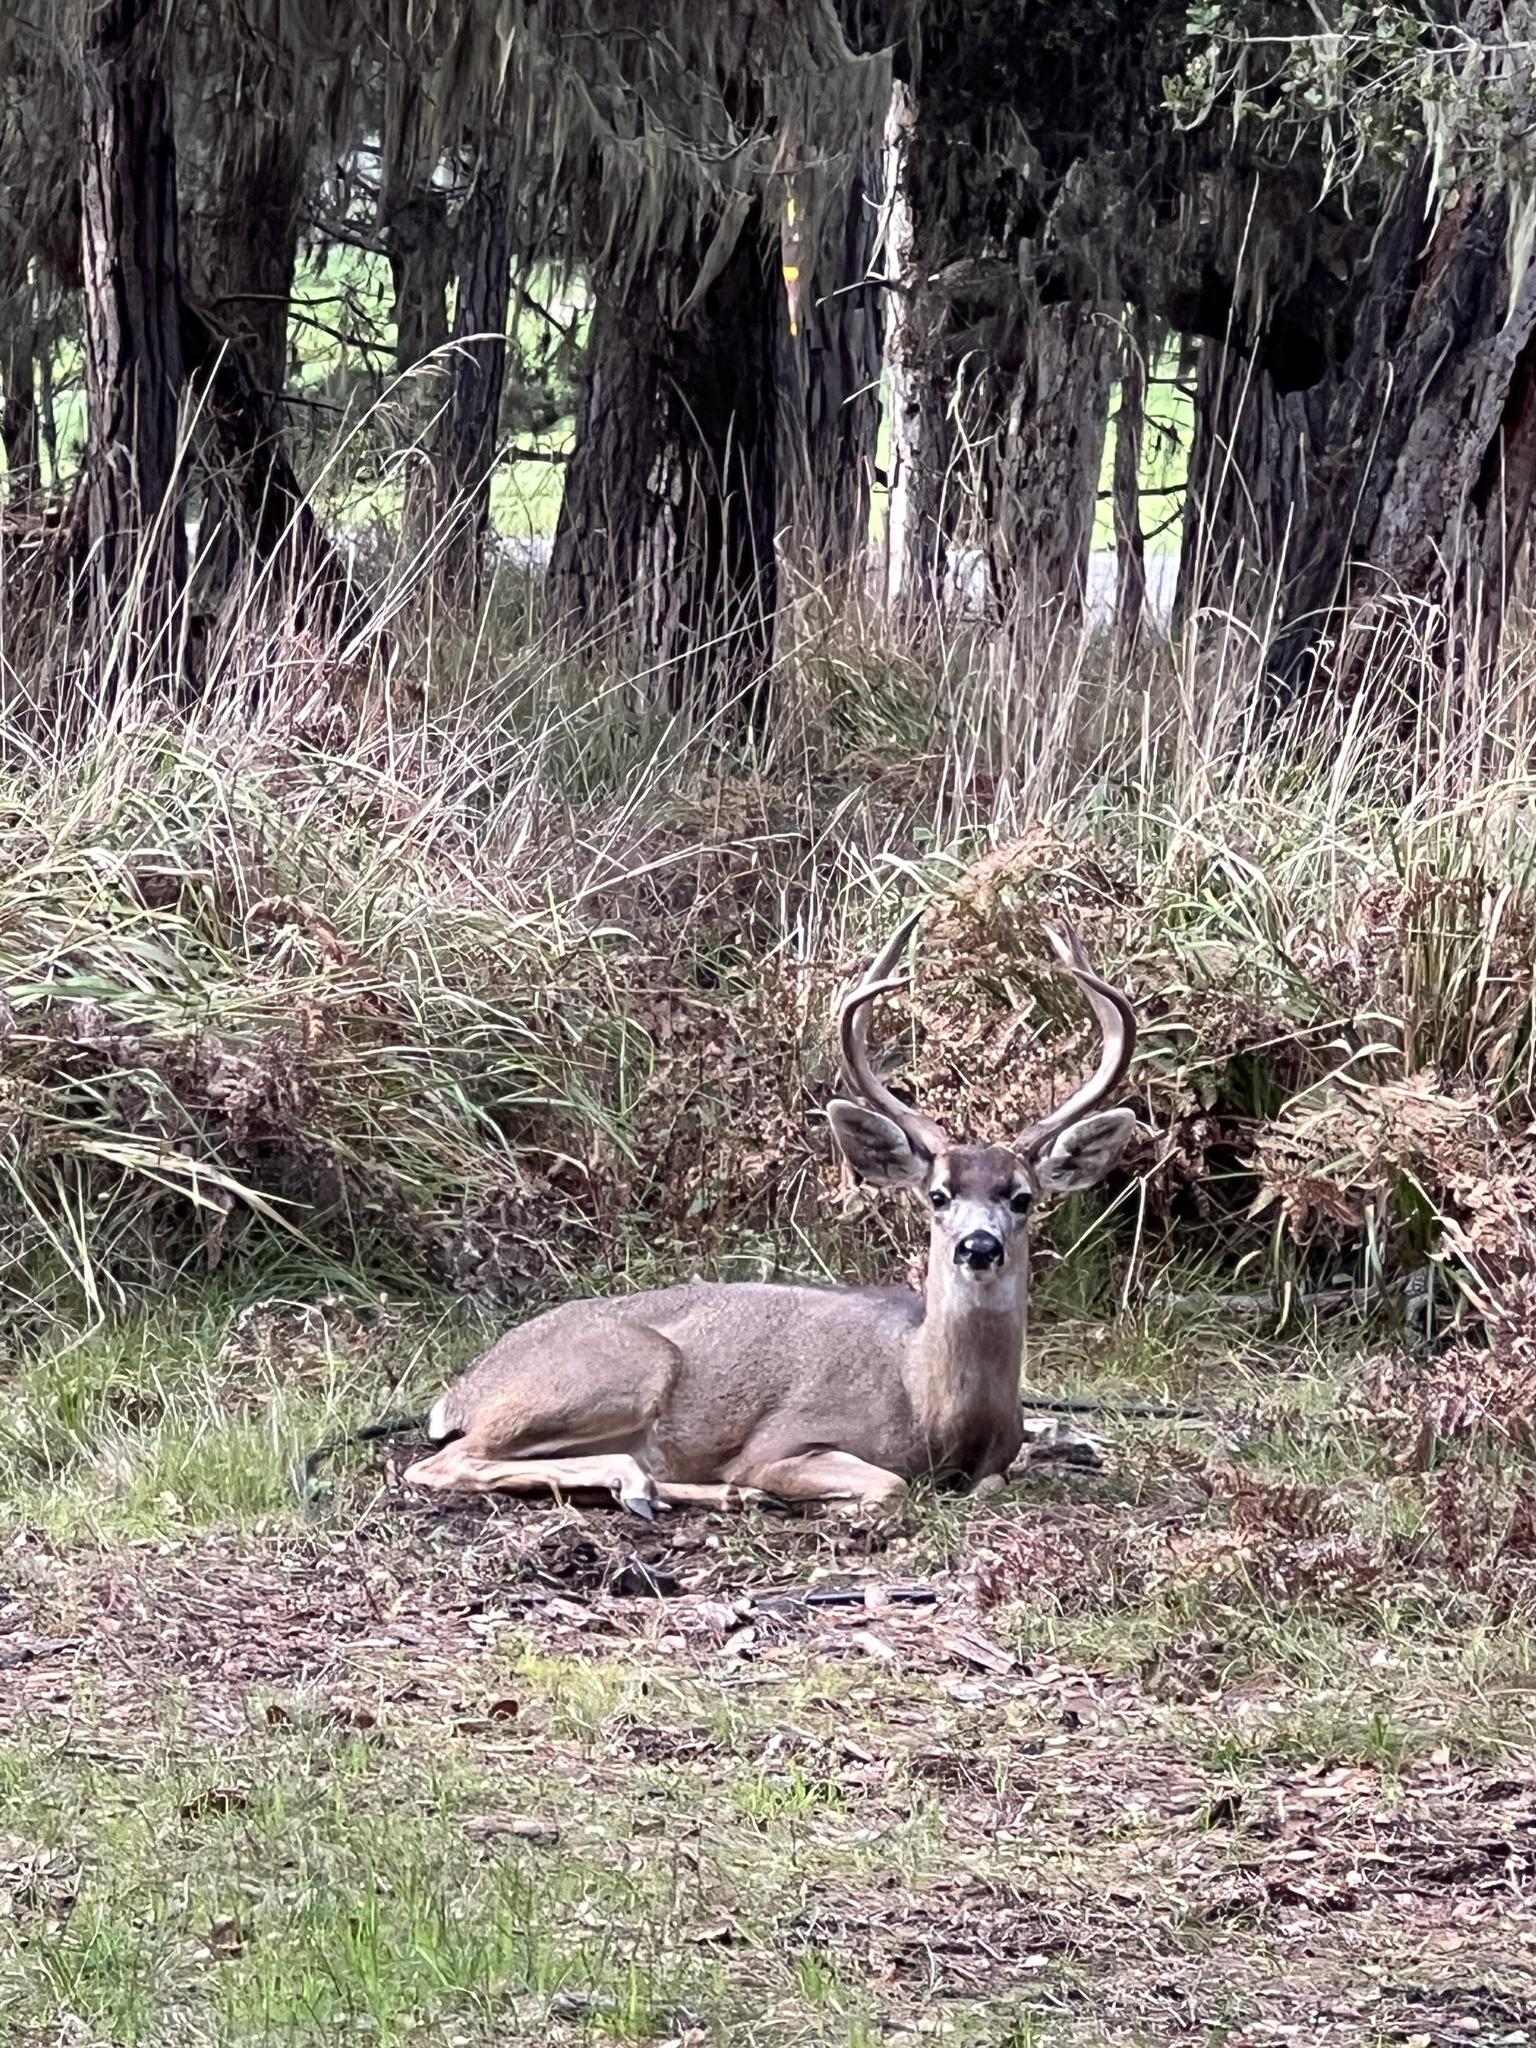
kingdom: Animalia
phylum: Chordata
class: Mammalia
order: Artiodactyla
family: Cervidae
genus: Odocoileus
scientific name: Odocoileus hemionus
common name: Mule deer
